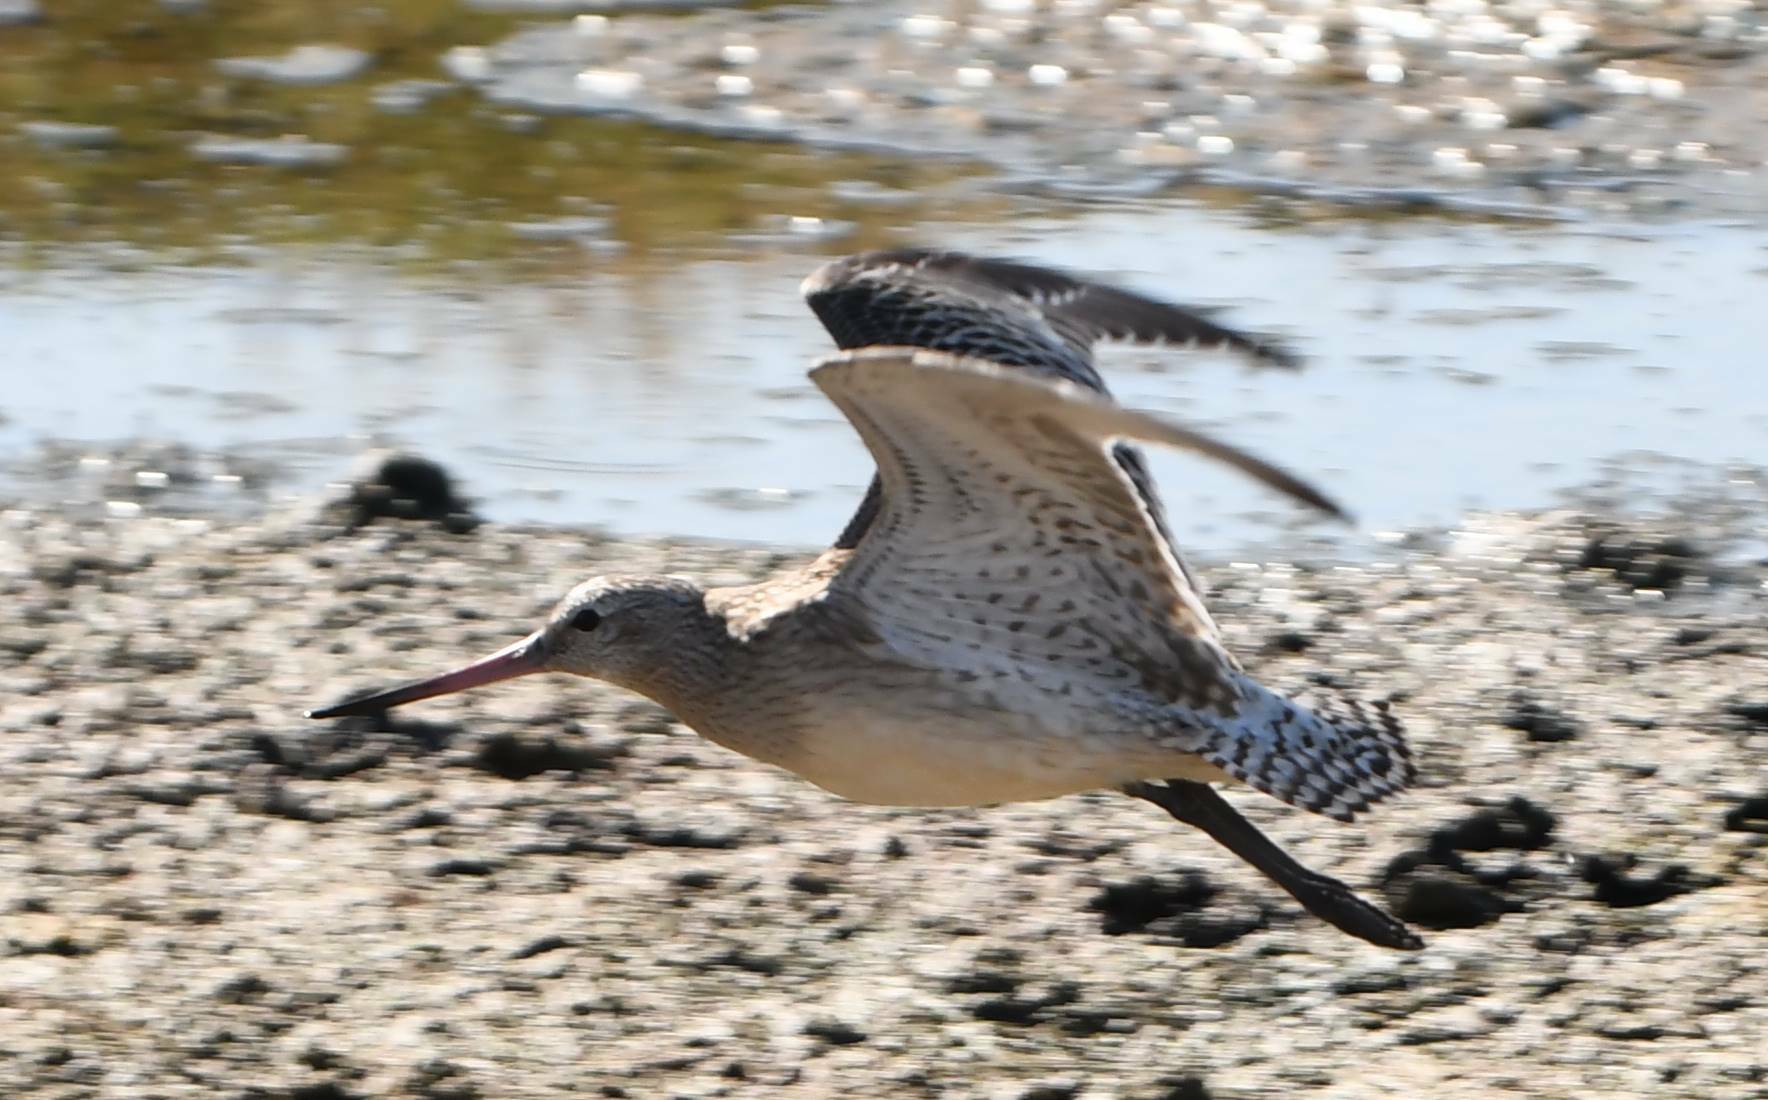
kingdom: Animalia
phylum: Chordata
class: Aves
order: Charadriiformes
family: Scolopacidae
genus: Limosa
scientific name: Limosa lapponica
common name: Bar-tailed godwit
